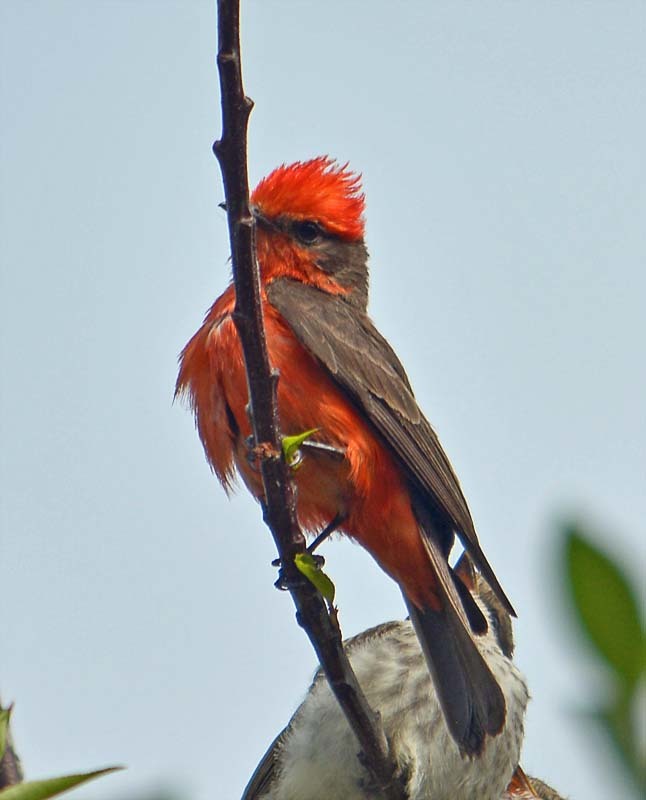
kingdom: Animalia
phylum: Chordata
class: Aves
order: Passeriformes
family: Tyrannidae
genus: Pyrocephalus
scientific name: Pyrocephalus rubinus
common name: Vermilion flycatcher
